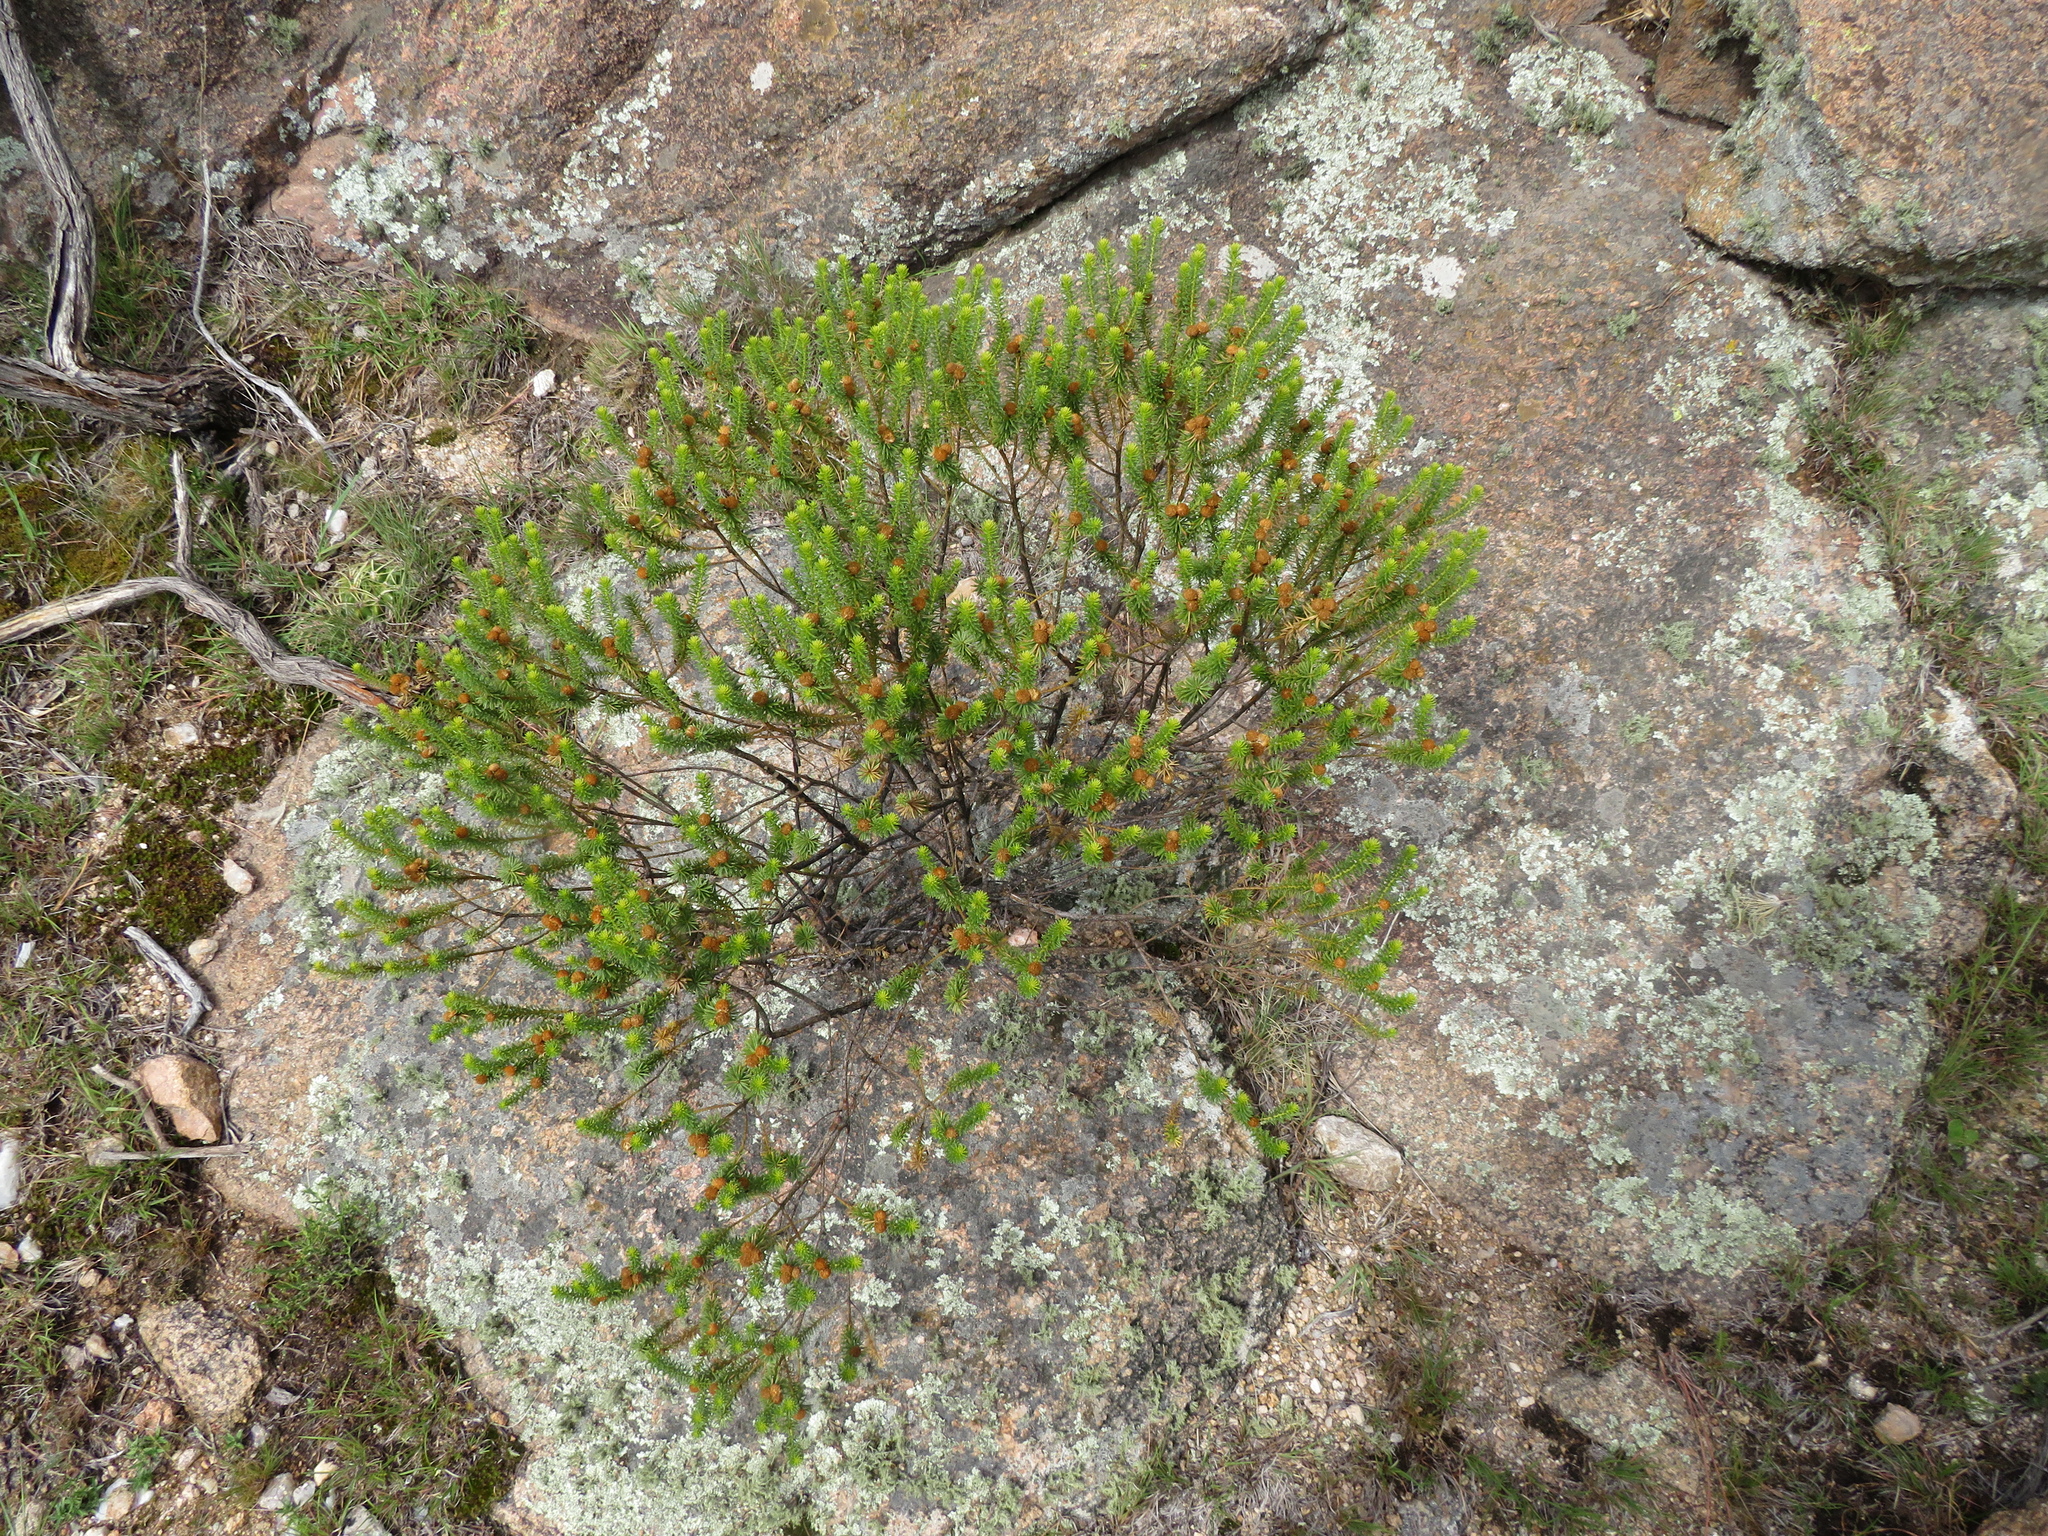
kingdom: Plantae
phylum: Tracheophyta
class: Magnoliopsida
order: Asterales
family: Asteraceae
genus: Baccharis
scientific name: Baccharis aliena
